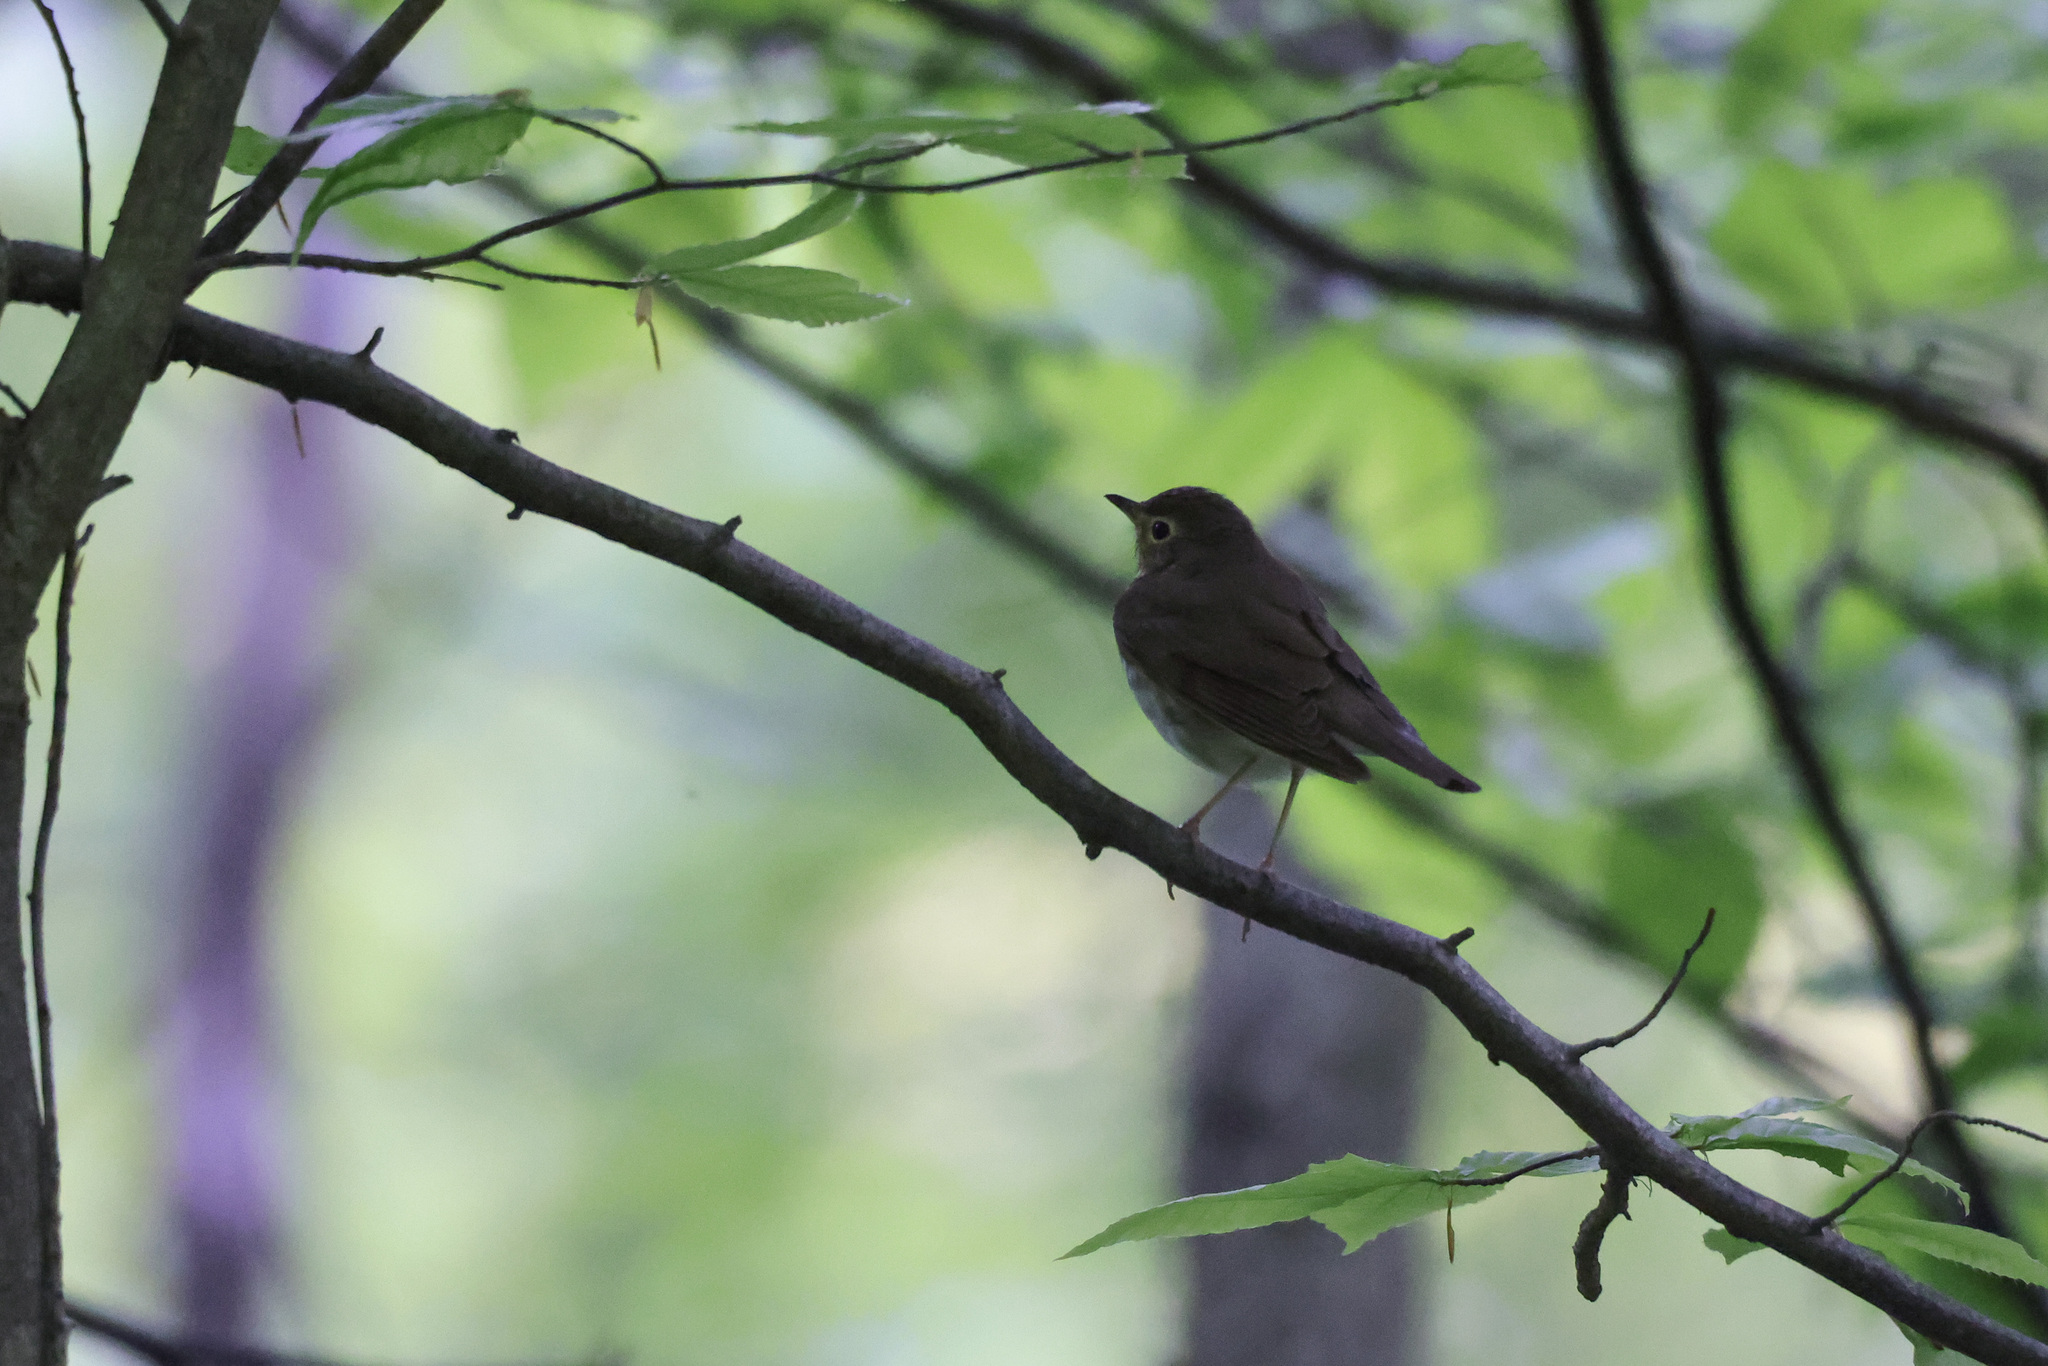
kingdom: Animalia
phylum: Chordata
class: Aves
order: Passeriformes
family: Turdidae
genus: Catharus
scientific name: Catharus ustulatus
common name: Swainson's thrush
